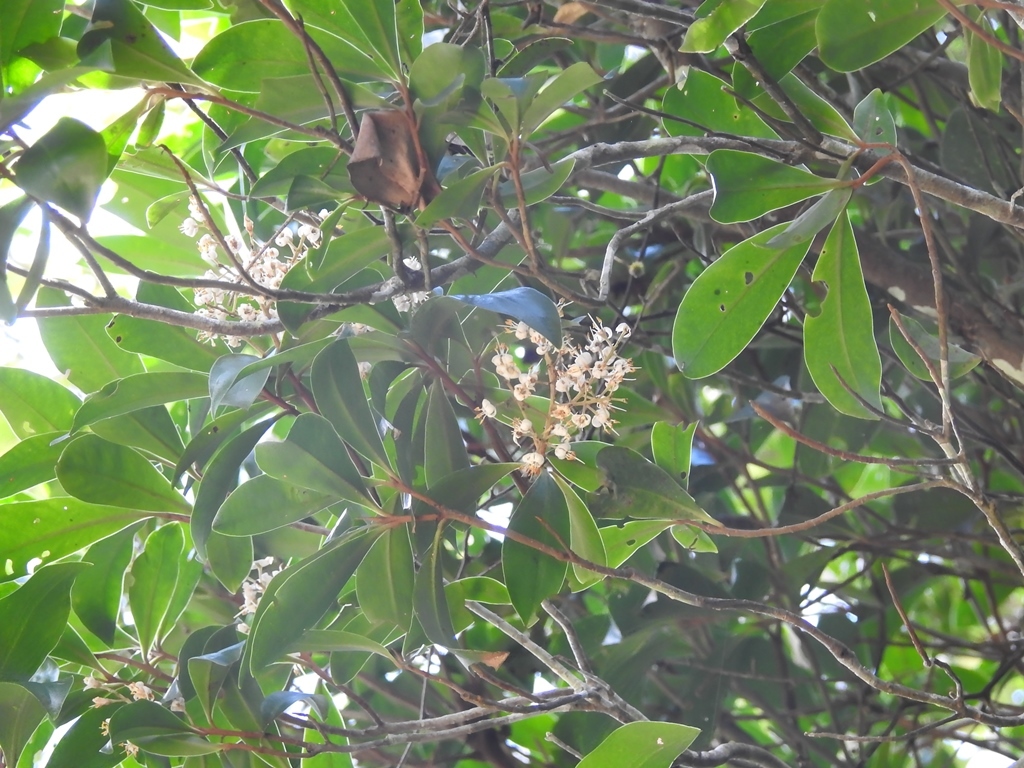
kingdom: Plantae
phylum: Tracheophyta
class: Magnoliopsida
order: Ericales
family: Primulaceae
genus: Ardisia
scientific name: Ardisia escallonioides
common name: Island marlberry
